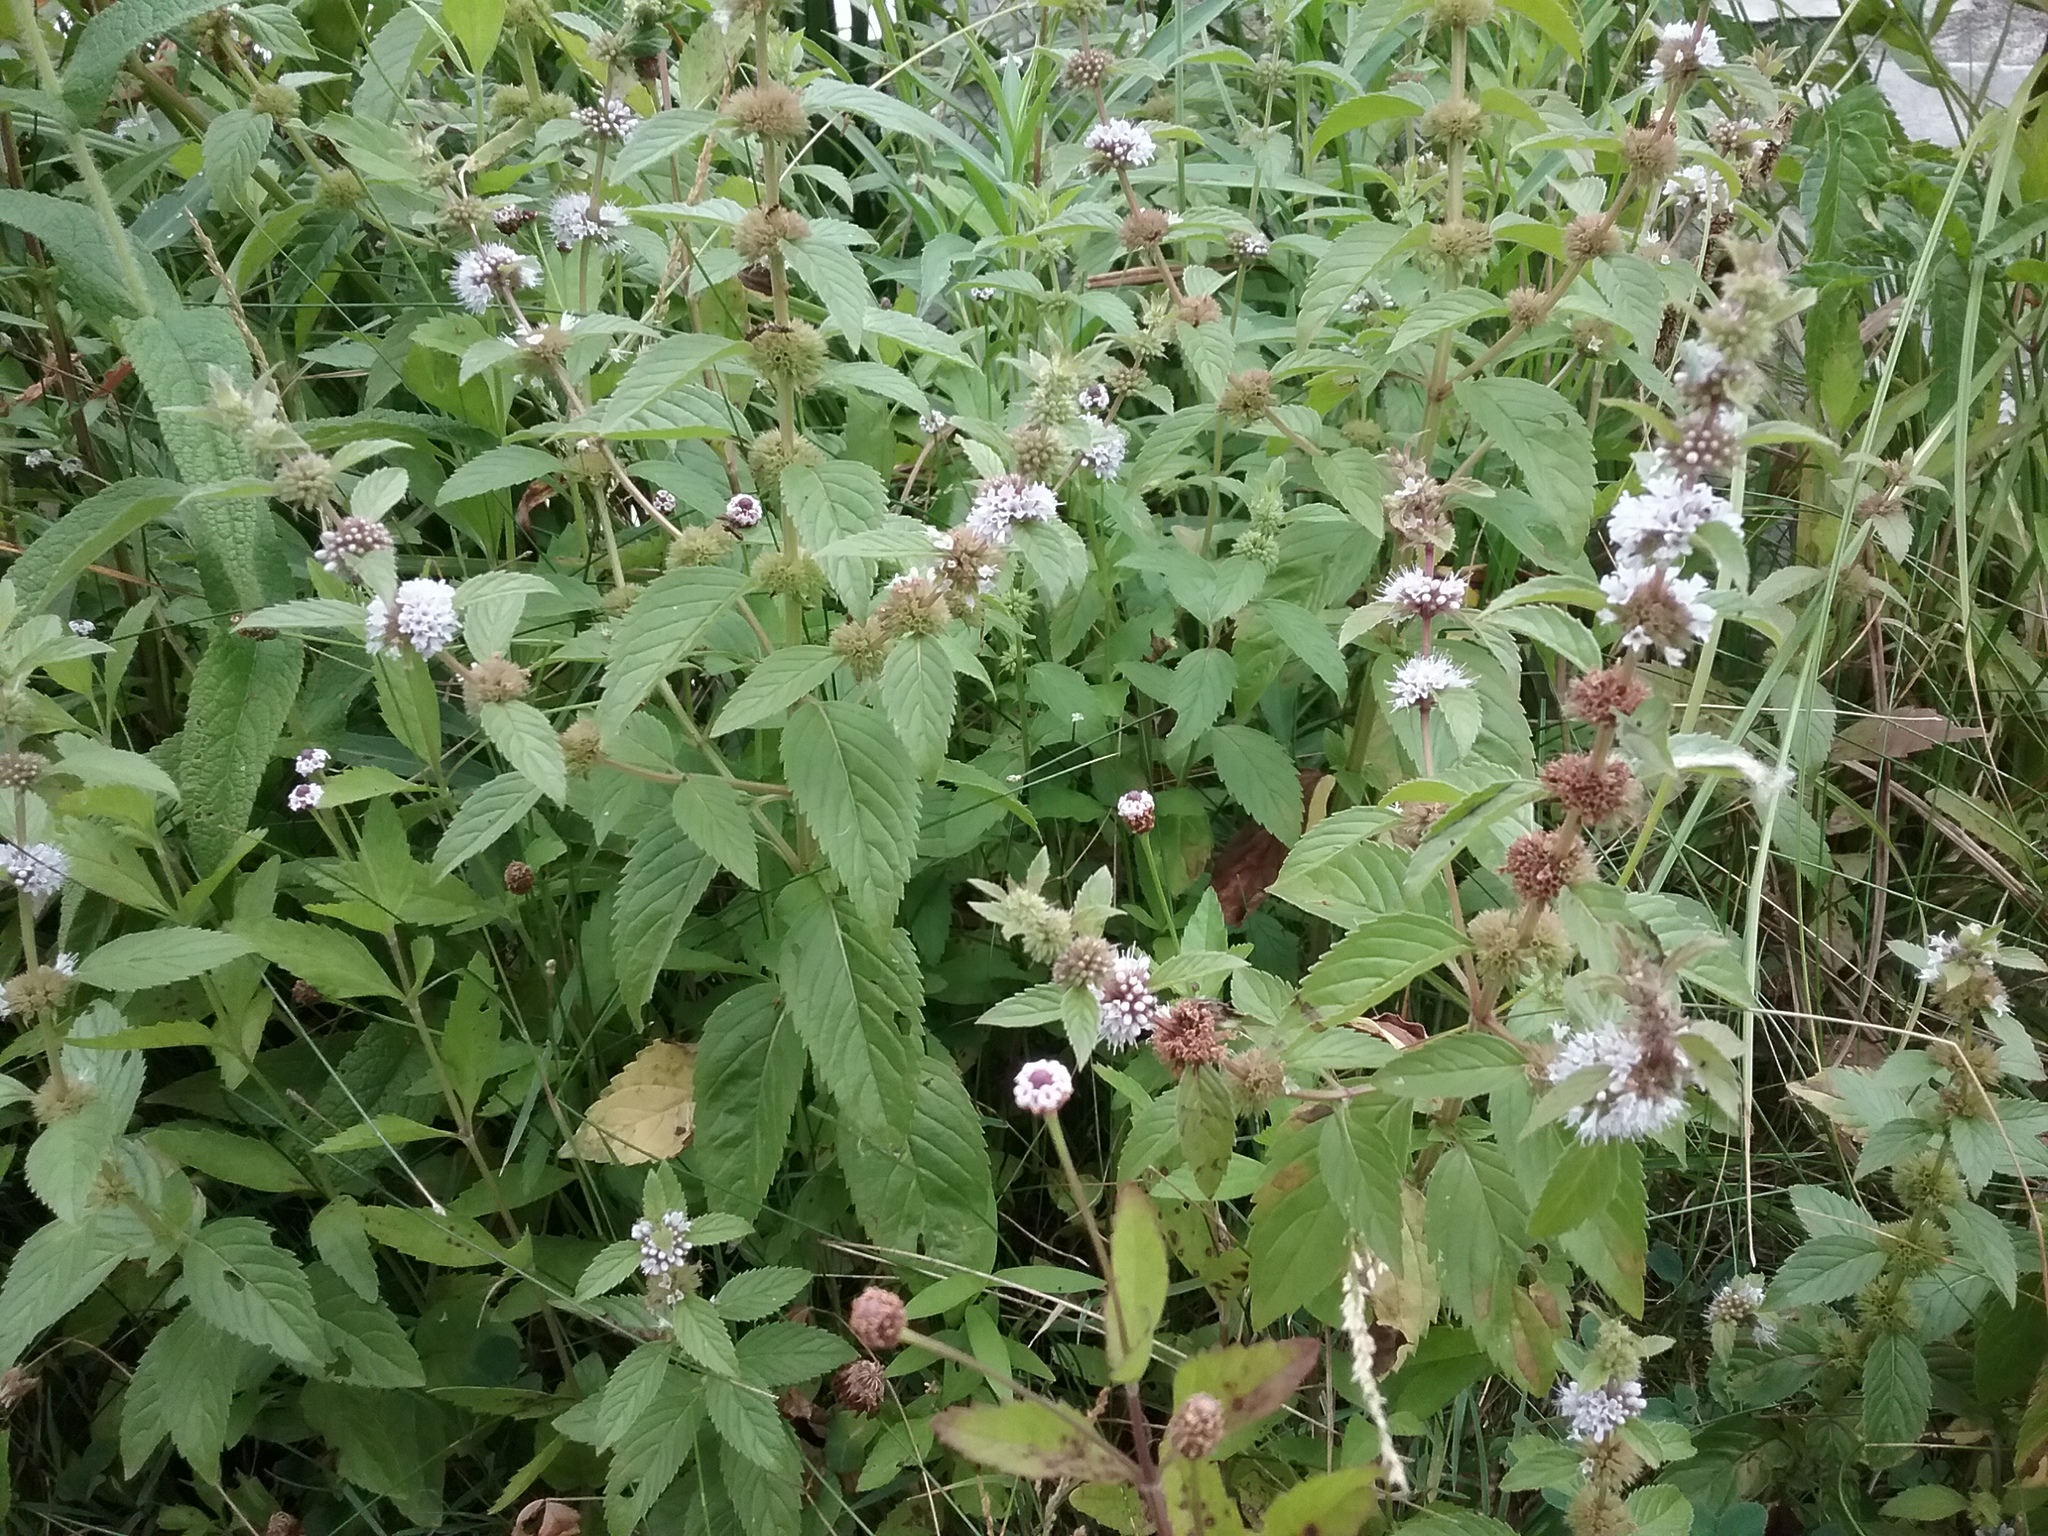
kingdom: Plantae
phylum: Tracheophyta
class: Magnoliopsida
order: Lamiales
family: Lamiaceae
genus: Mentha
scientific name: Mentha canadensis
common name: American corn mint
